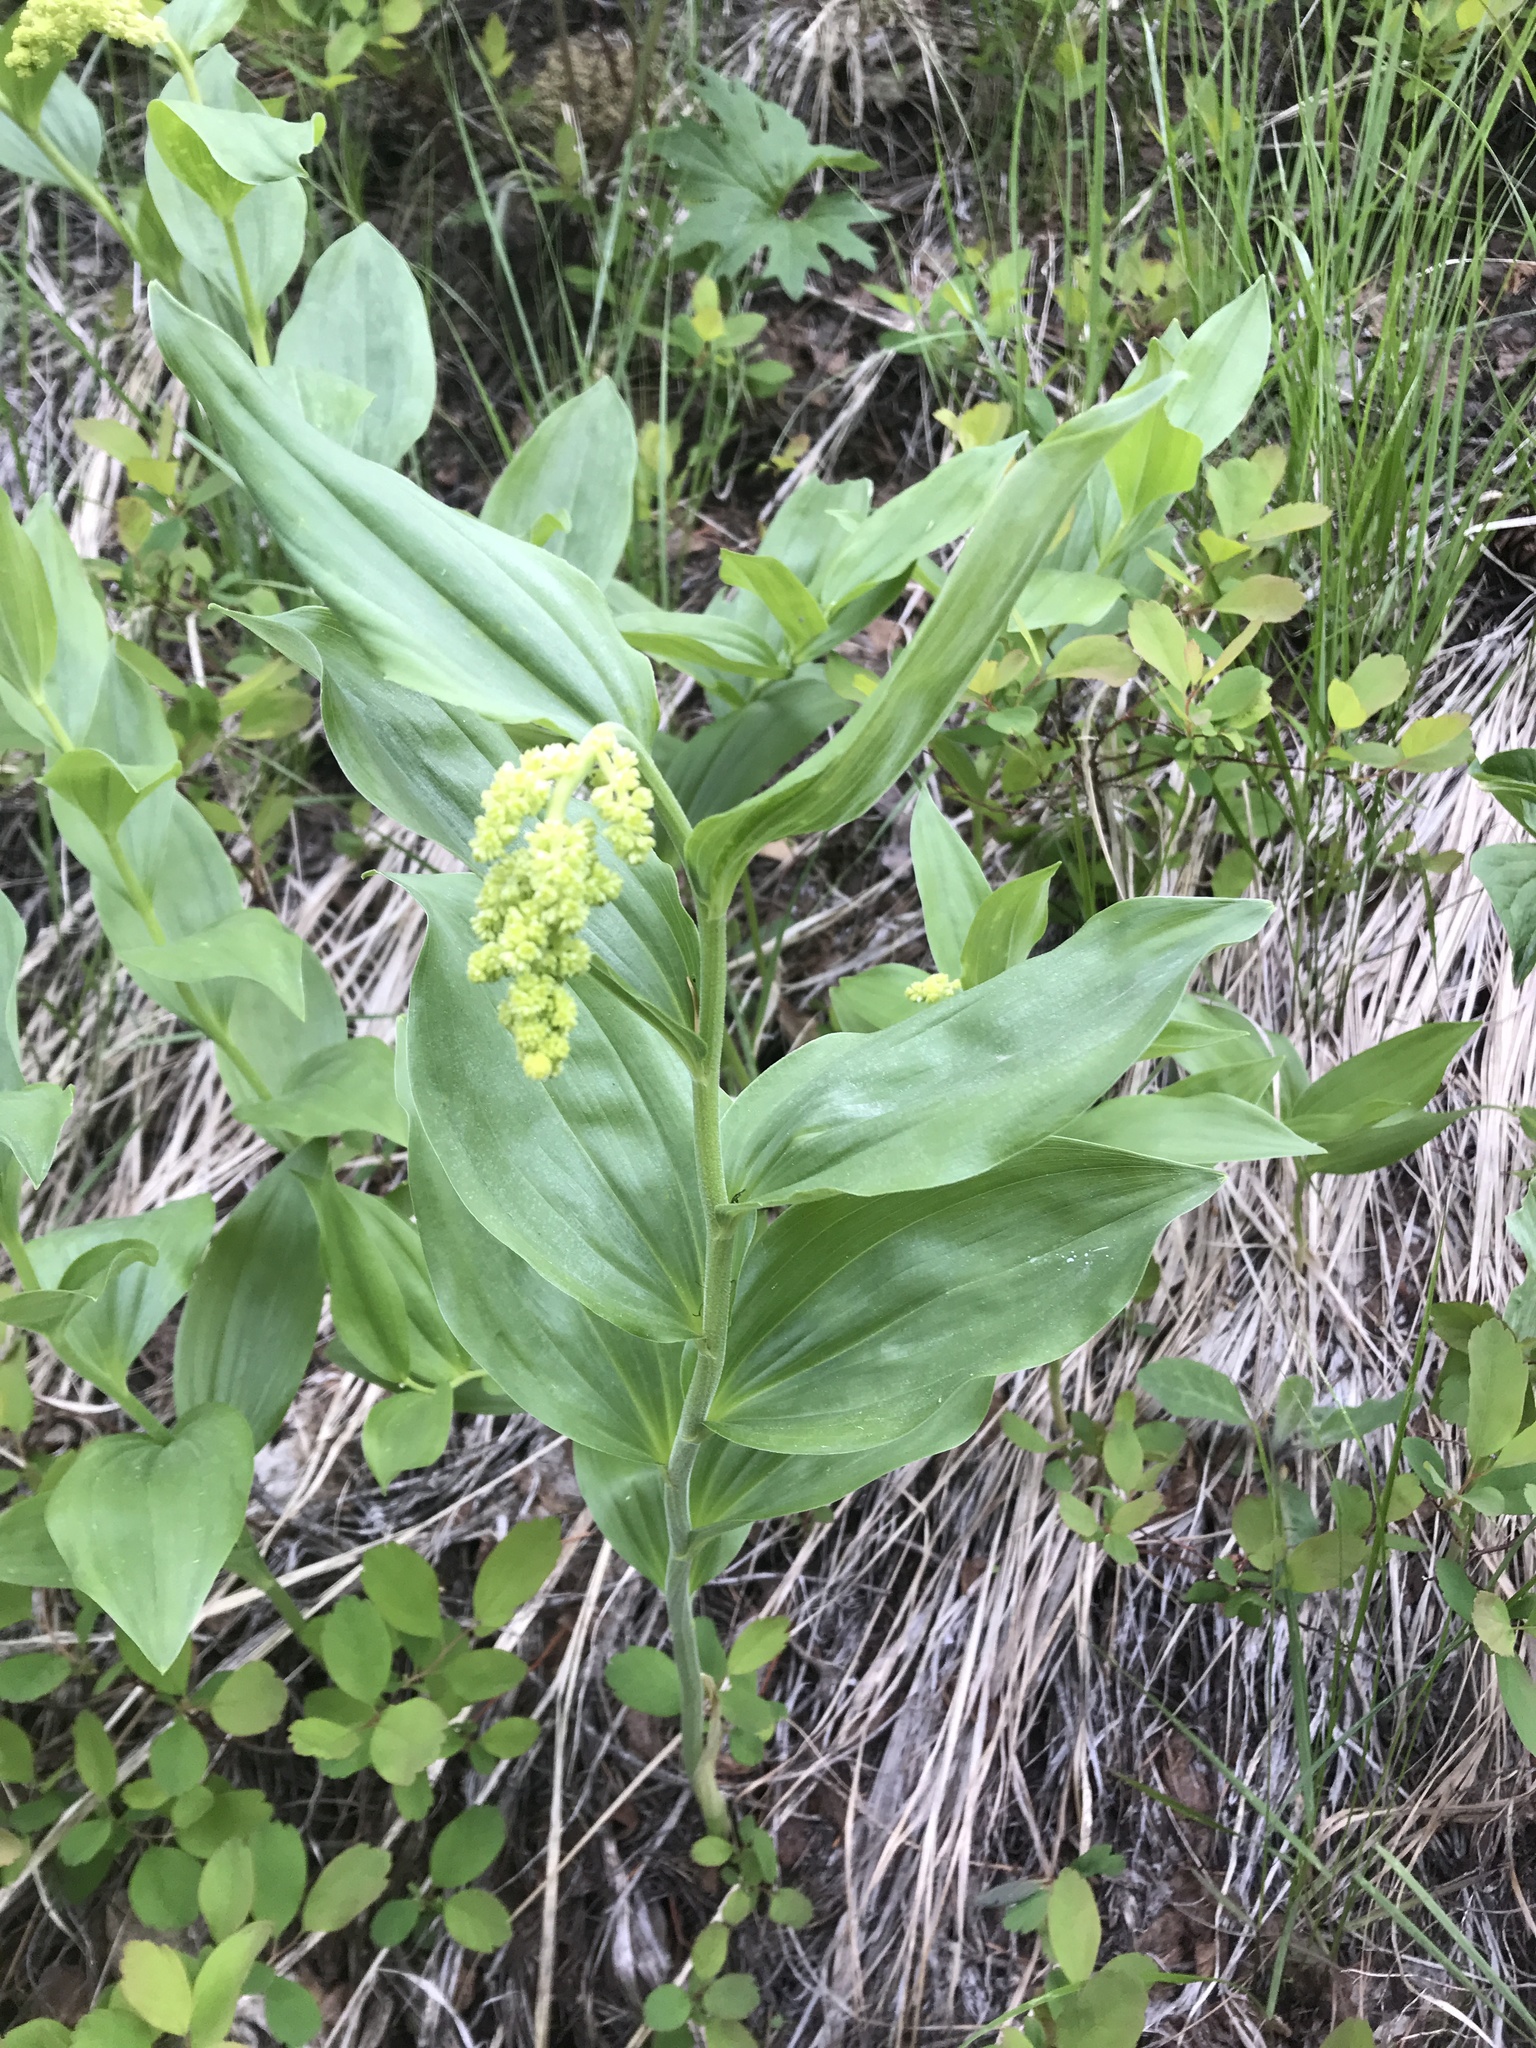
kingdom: Plantae
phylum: Tracheophyta
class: Liliopsida
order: Asparagales
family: Asparagaceae
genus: Maianthemum
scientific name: Maianthemum racemosum
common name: False spikenard
